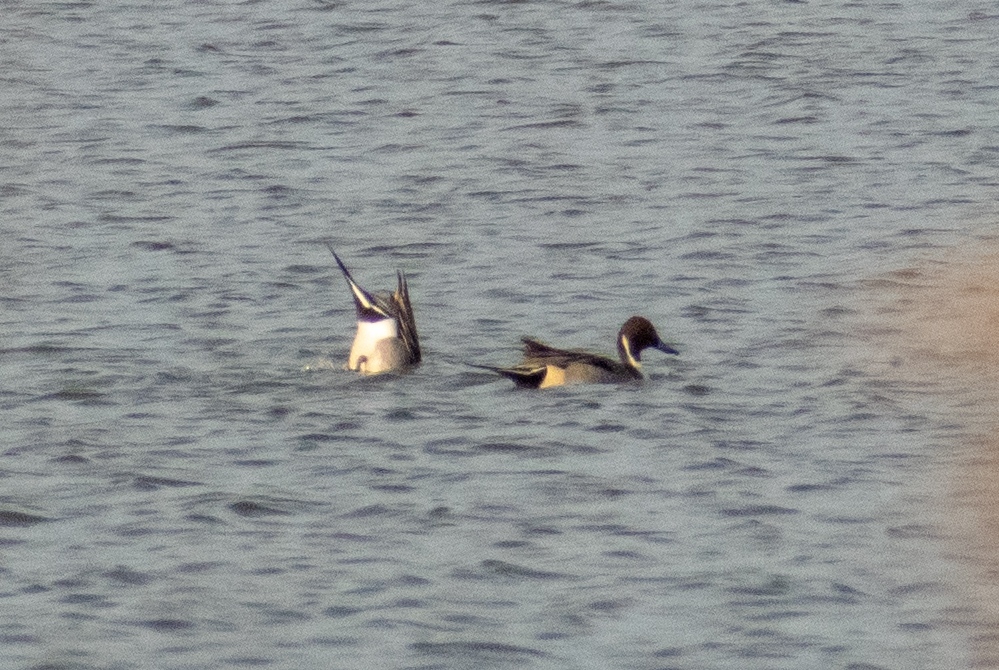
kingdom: Animalia
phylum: Chordata
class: Aves
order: Anseriformes
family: Anatidae
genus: Anas
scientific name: Anas acuta
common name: Northern pintail
